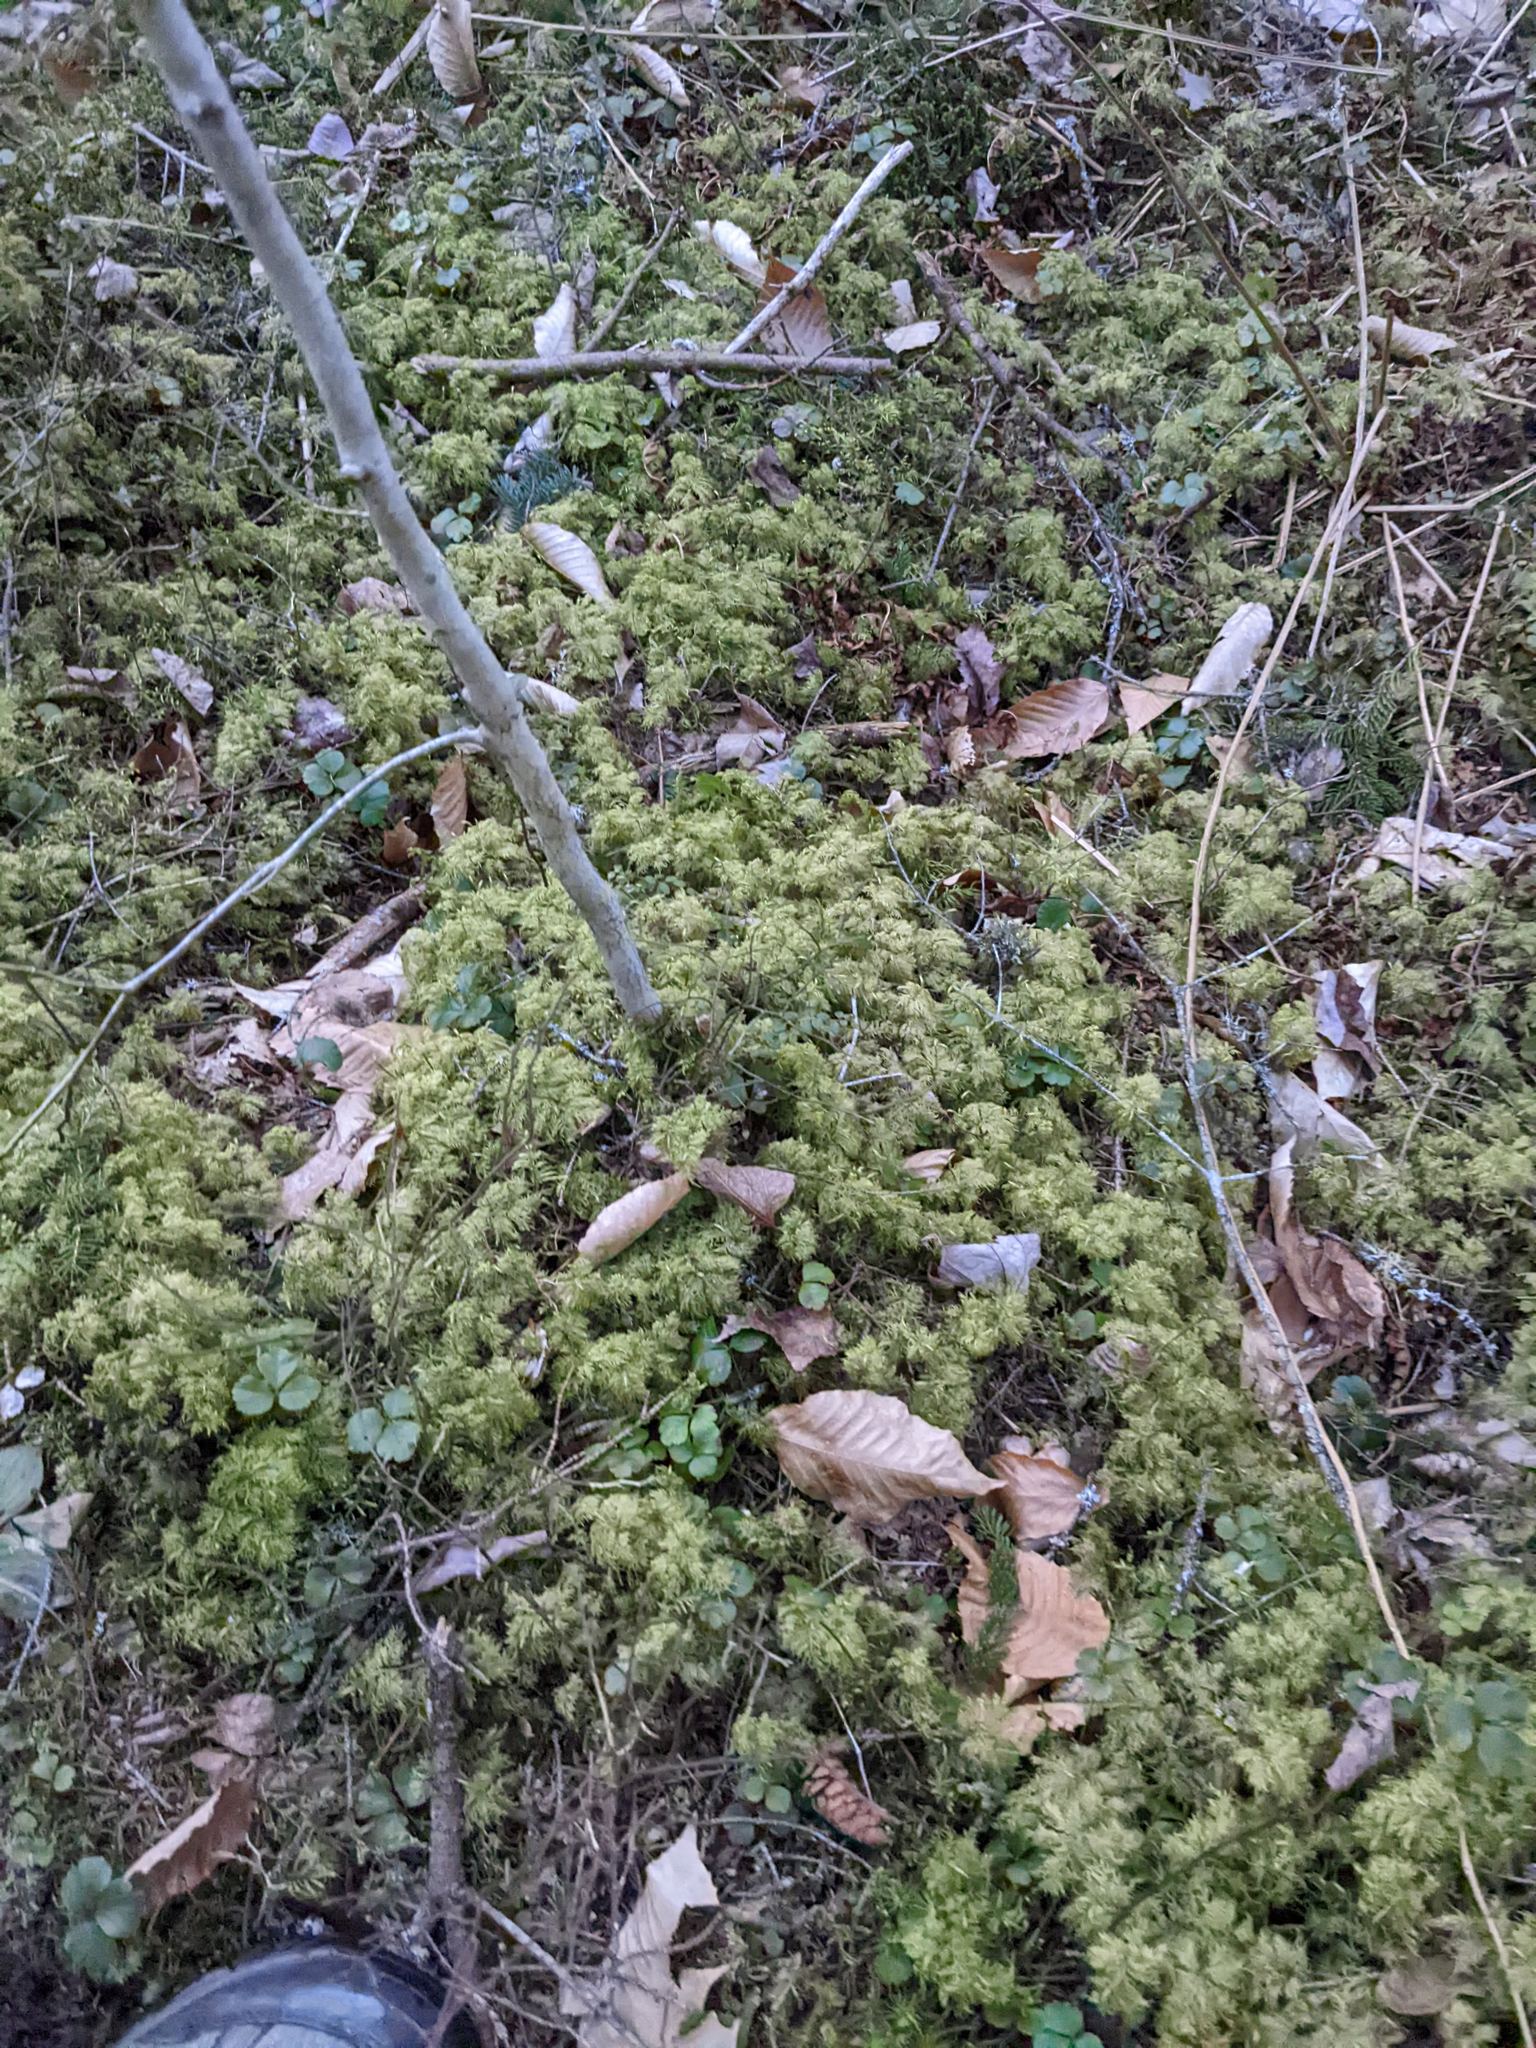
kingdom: Plantae
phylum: Bryophyta
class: Bryopsida
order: Hypnales
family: Hylocomiaceae
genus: Hylocomium
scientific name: Hylocomium splendens
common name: Stairstep moss
